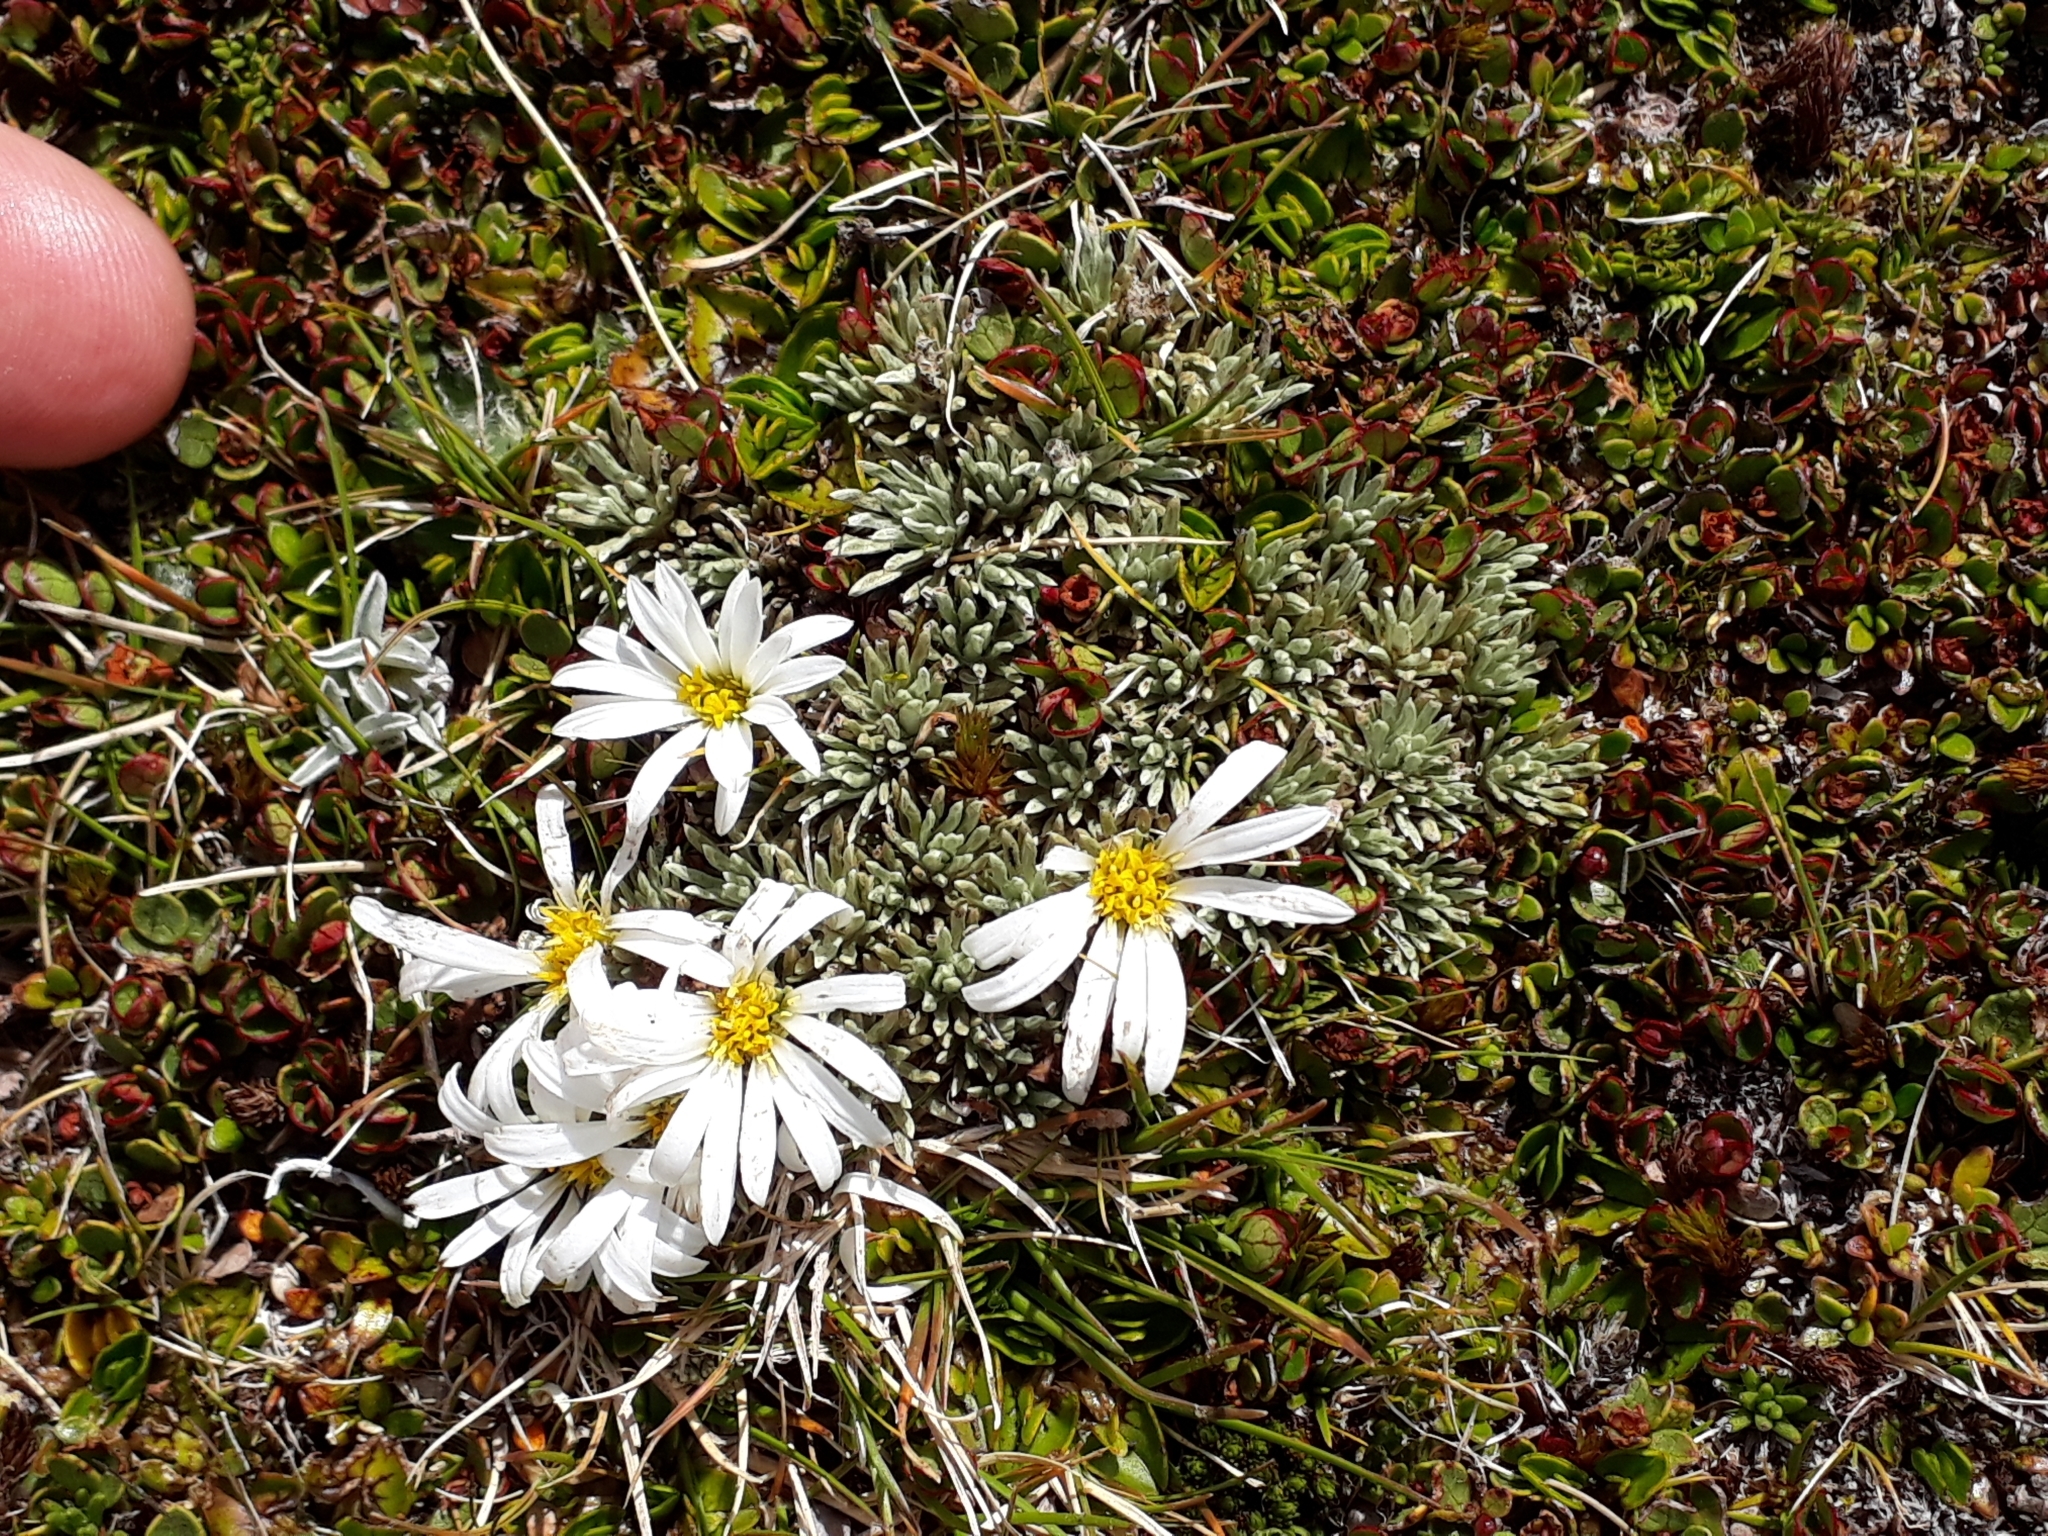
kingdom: Plantae
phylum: Tracheophyta
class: Magnoliopsida
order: Asterales
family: Asteraceae
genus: Celmisia
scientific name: Celmisia argentea
